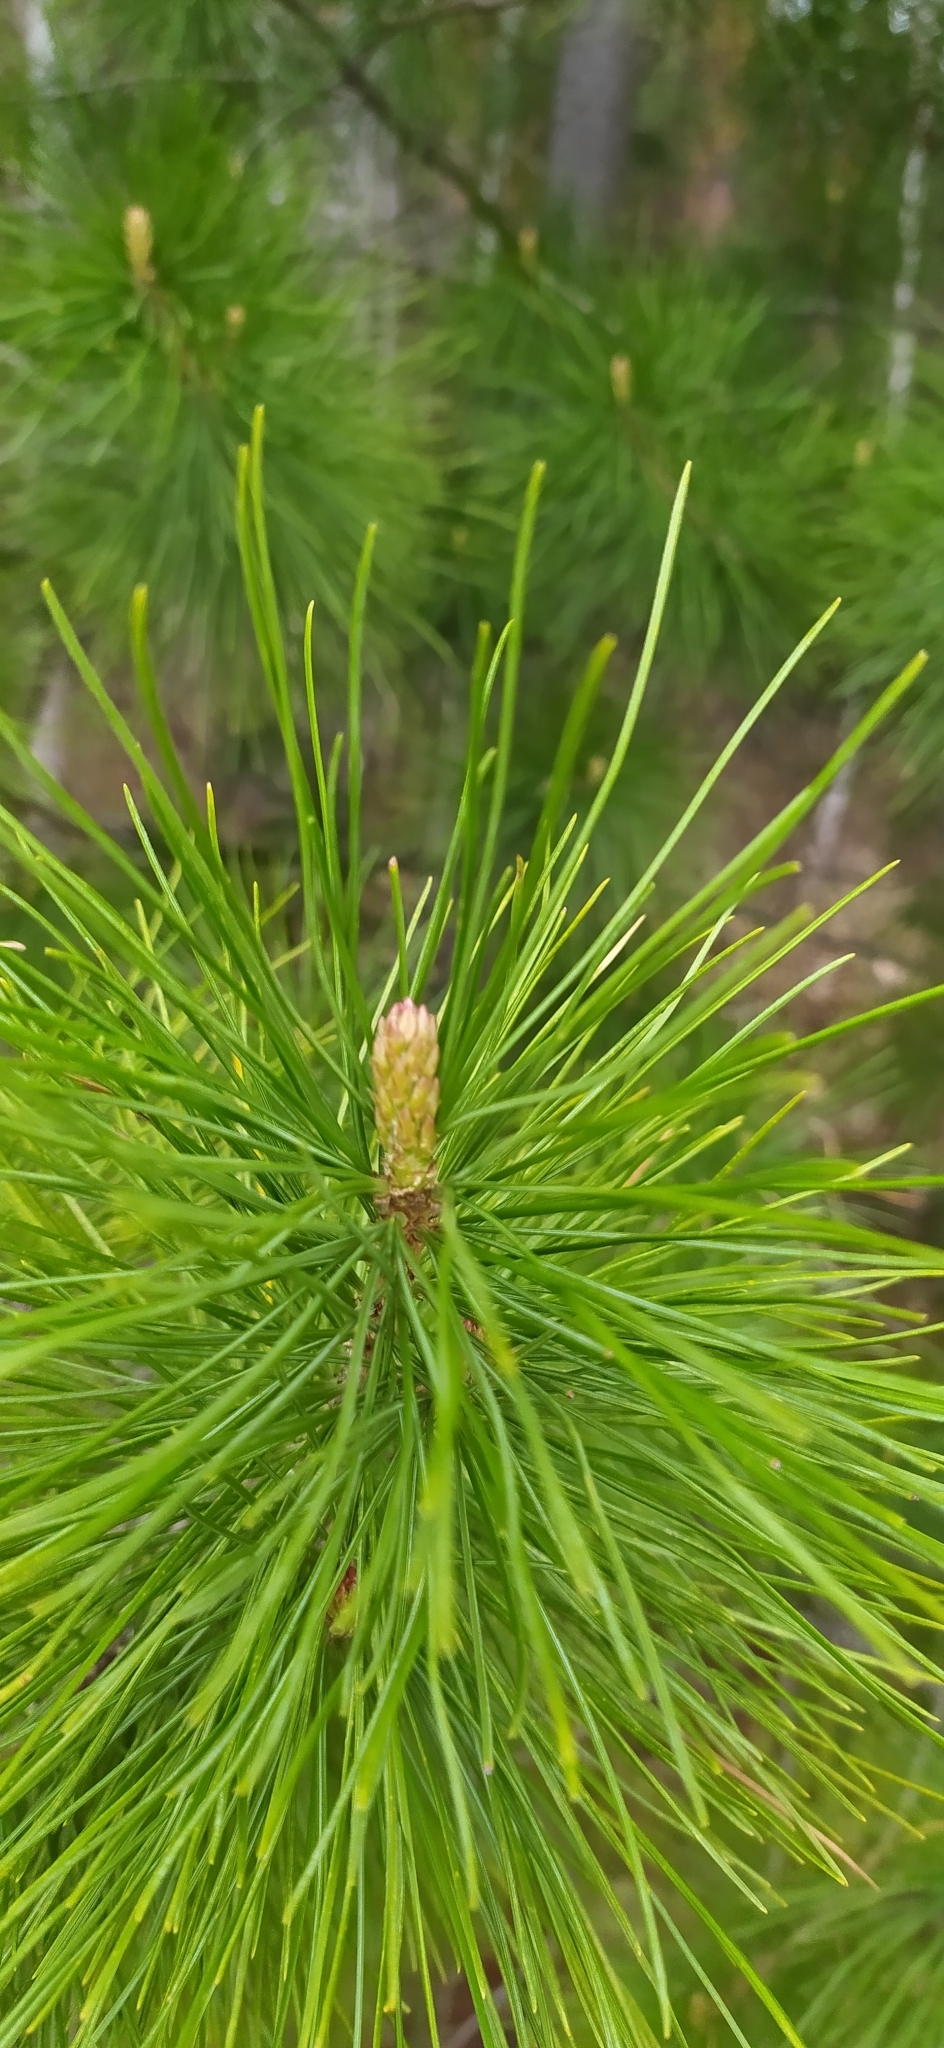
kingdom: Plantae
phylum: Tracheophyta
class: Pinopsida
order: Pinales
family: Pinaceae
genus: Pinus
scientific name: Pinus sibirica
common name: Siberian pine
